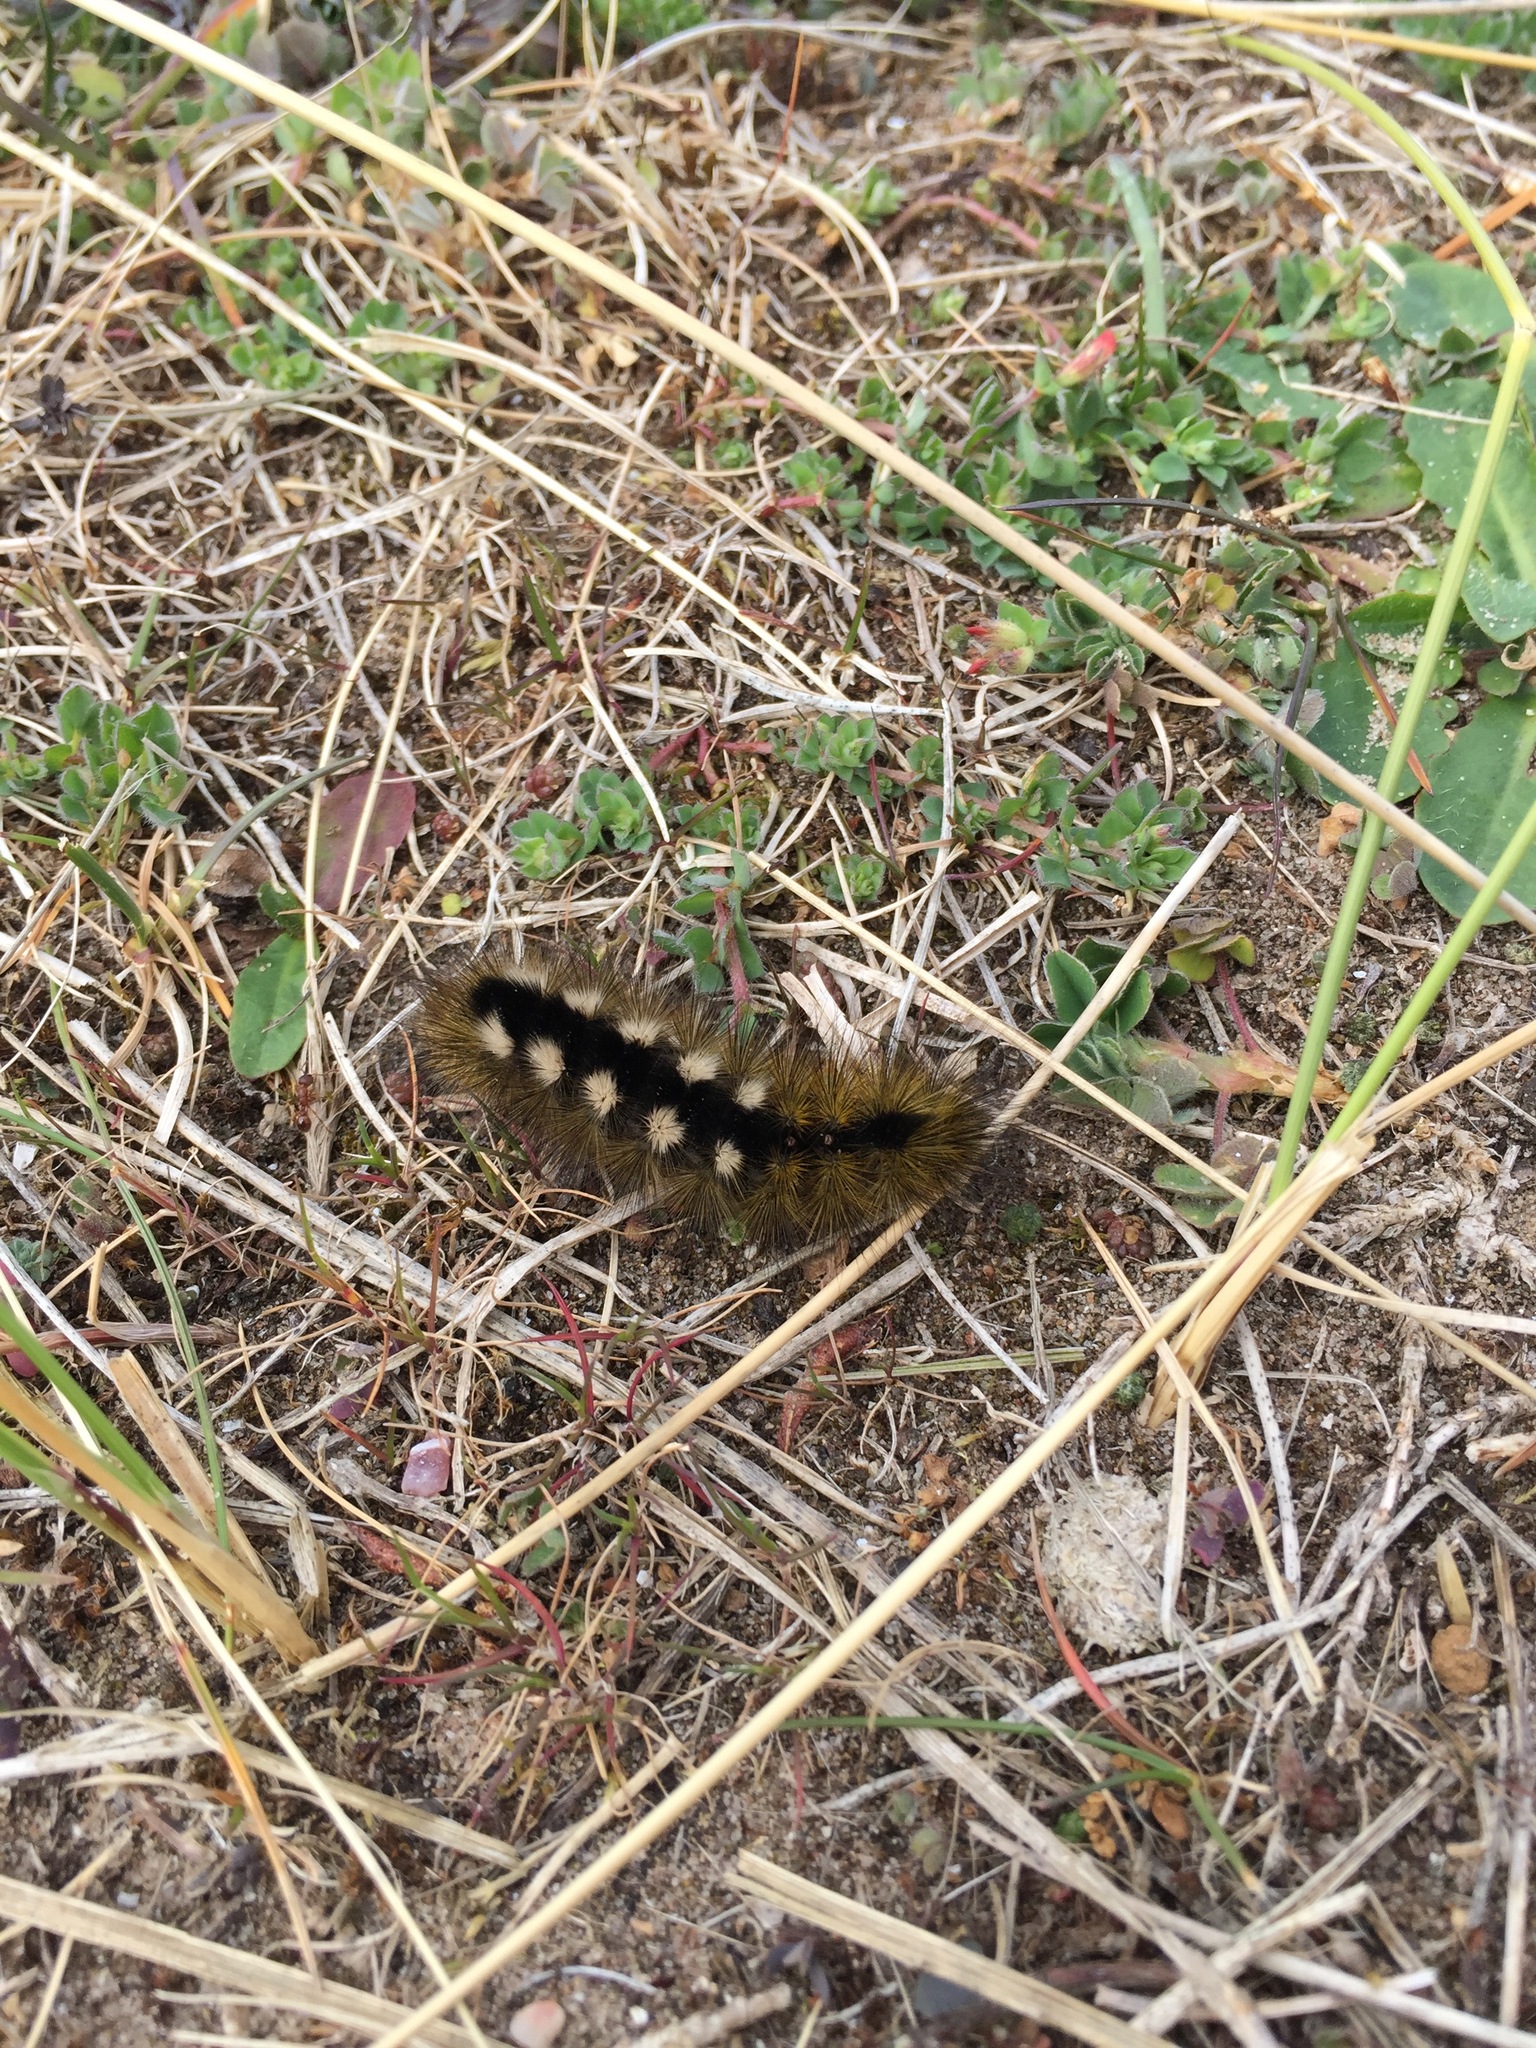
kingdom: Animalia
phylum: Arthropoda
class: Insecta
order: Lepidoptera
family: Erebidae
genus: Calliteara
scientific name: Calliteara Dicallomera fascelina
